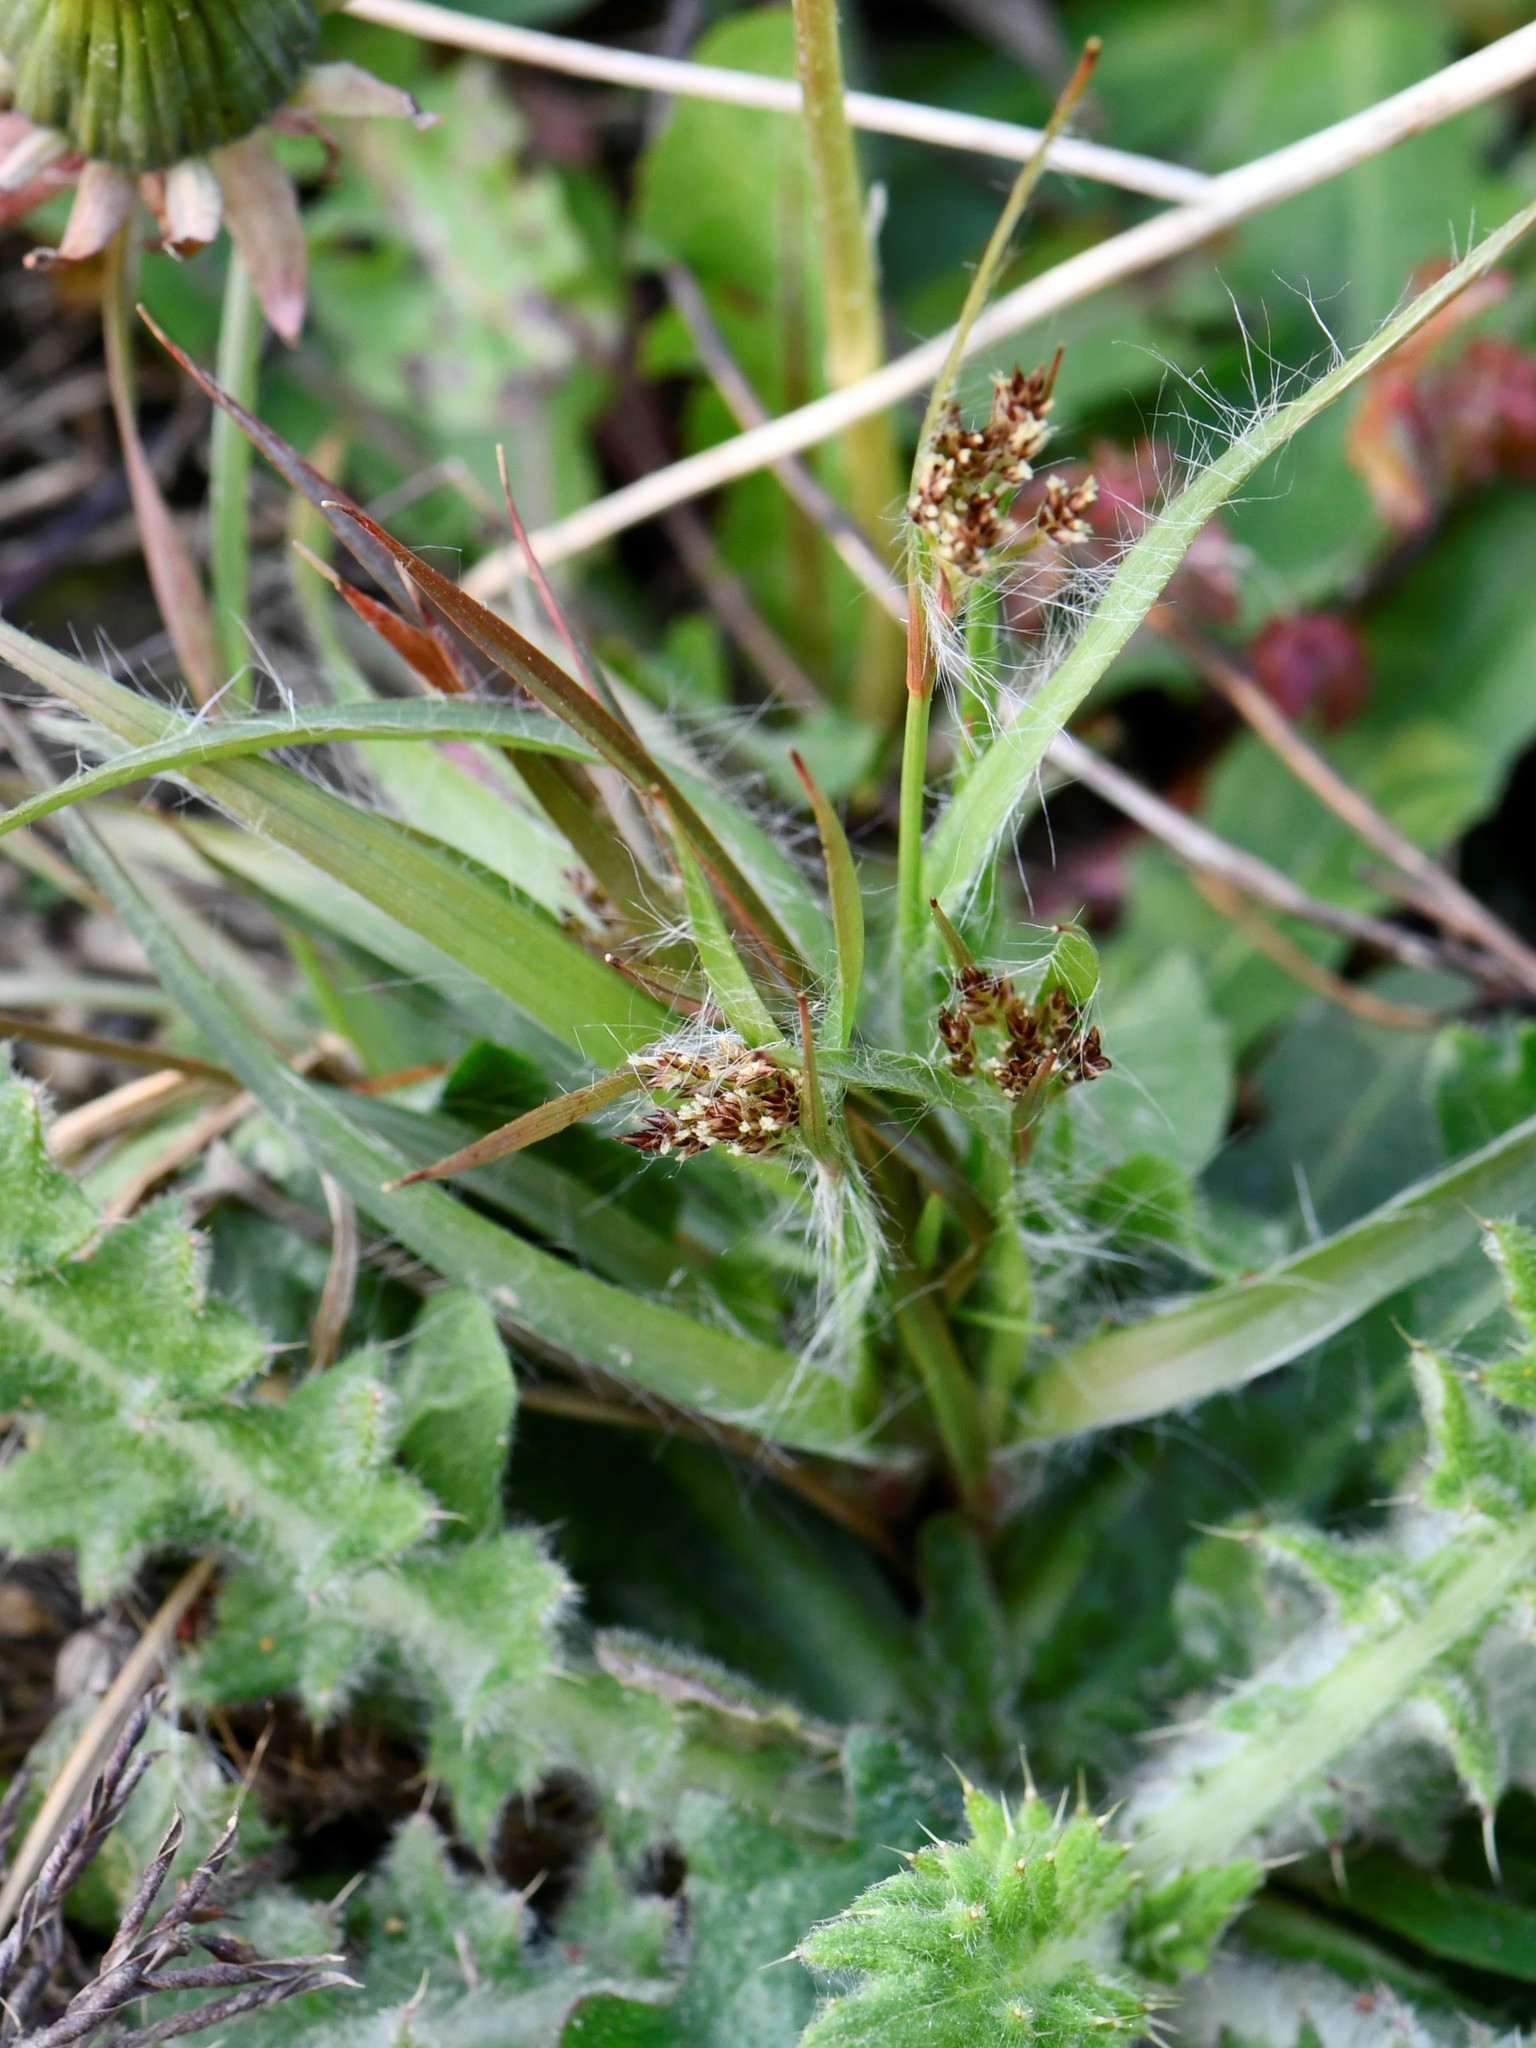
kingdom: Plantae
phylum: Tracheophyta
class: Liliopsida
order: Poales
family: Juncaceae
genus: Luzula
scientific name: Luzula campestris
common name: Field wood-rush
